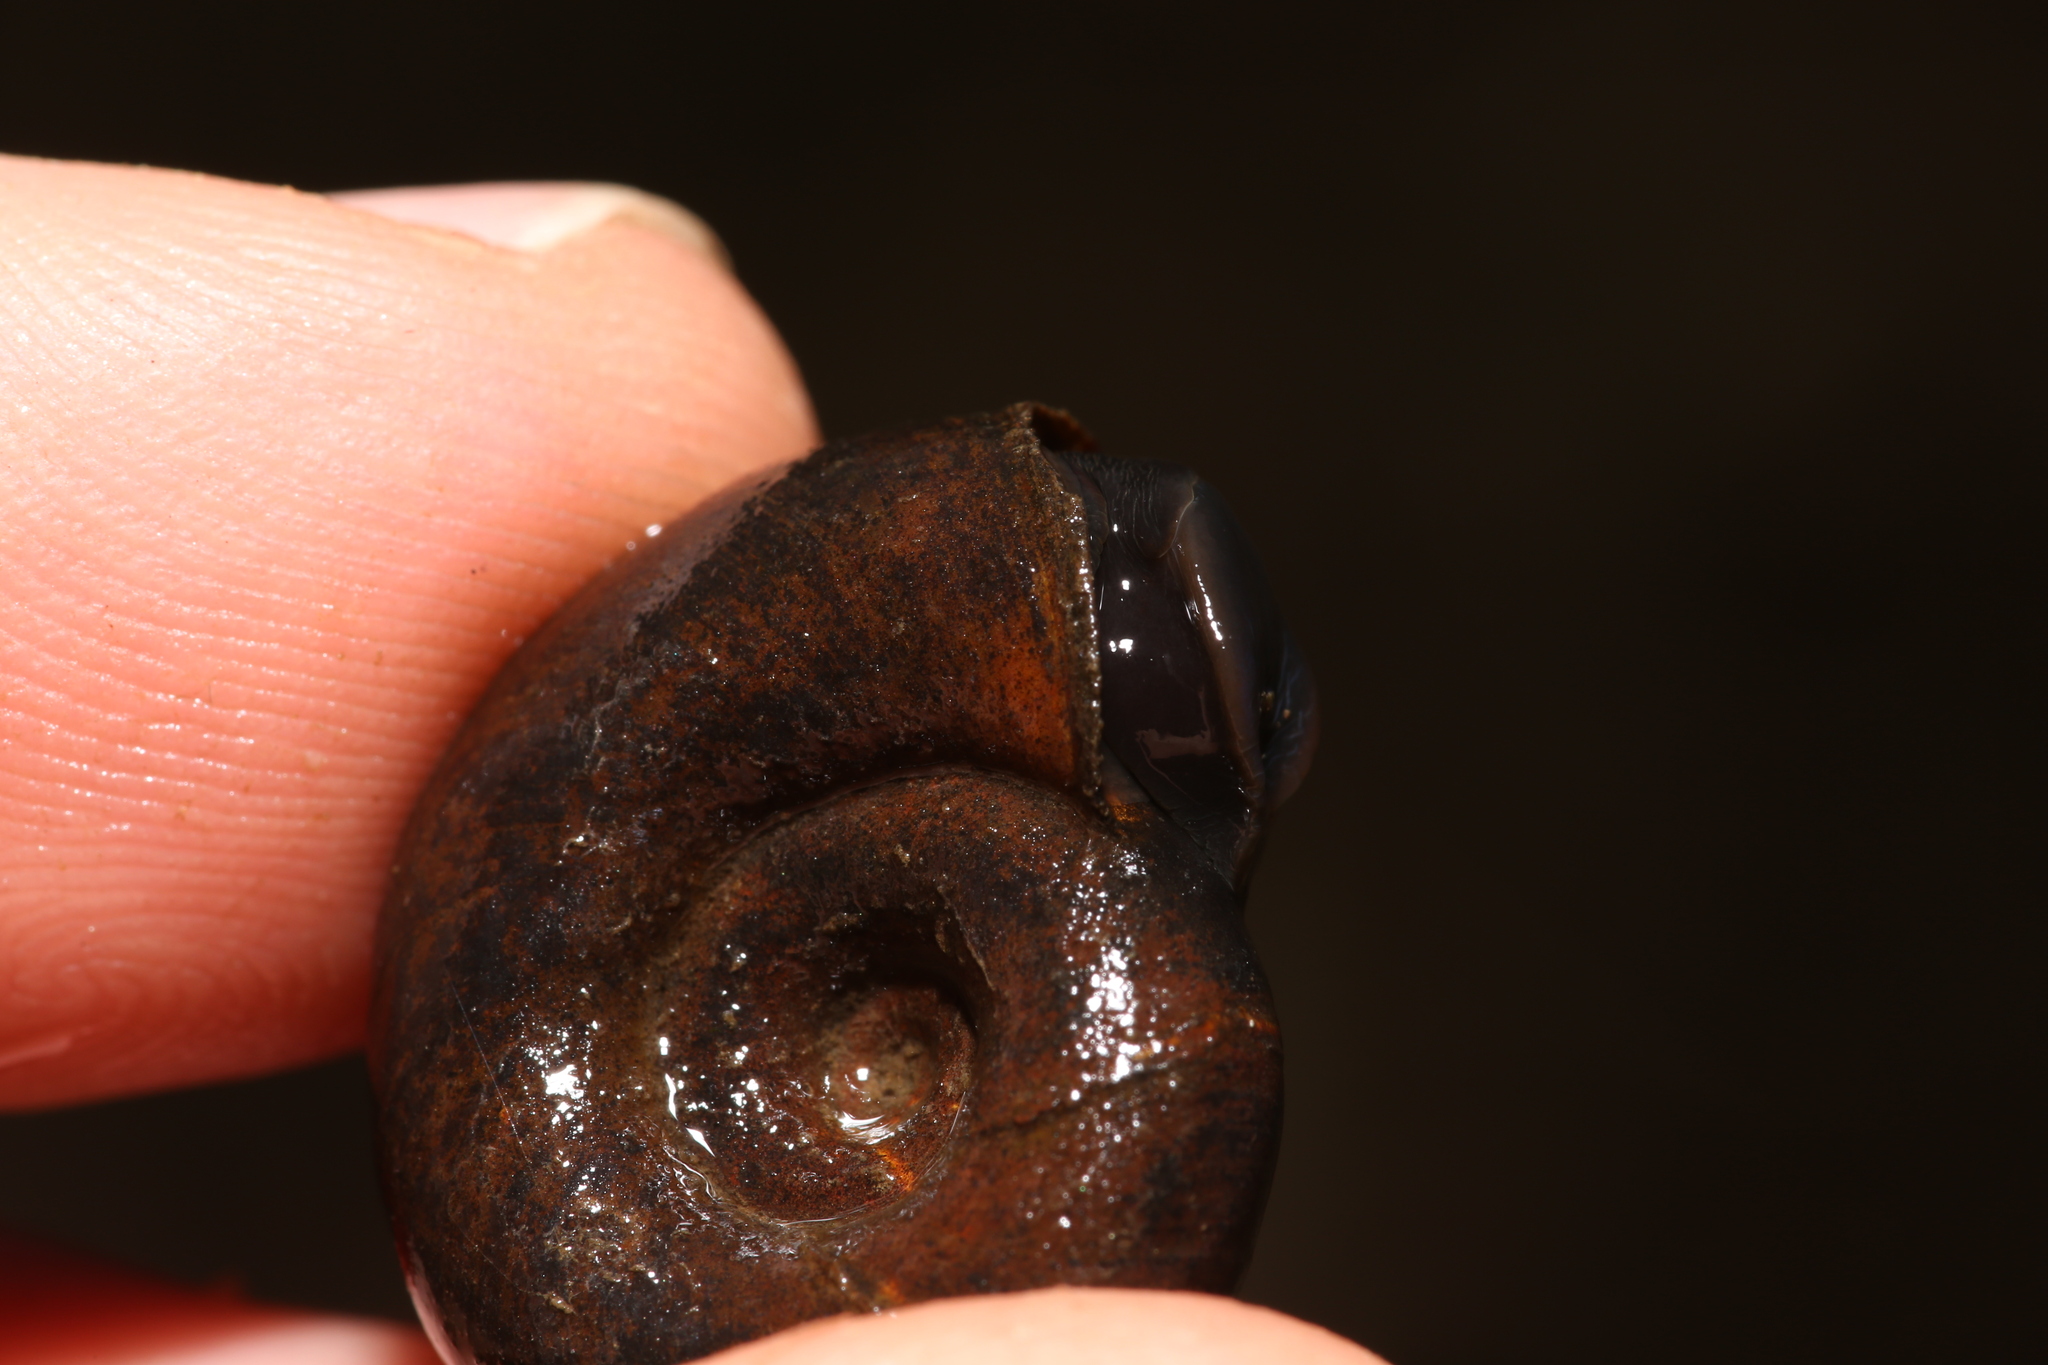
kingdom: Animalia
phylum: Mollusca
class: Gastropoda
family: Planorbidae
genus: Planorbarius
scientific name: Planorbarius corneus
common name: Great ramshorn
